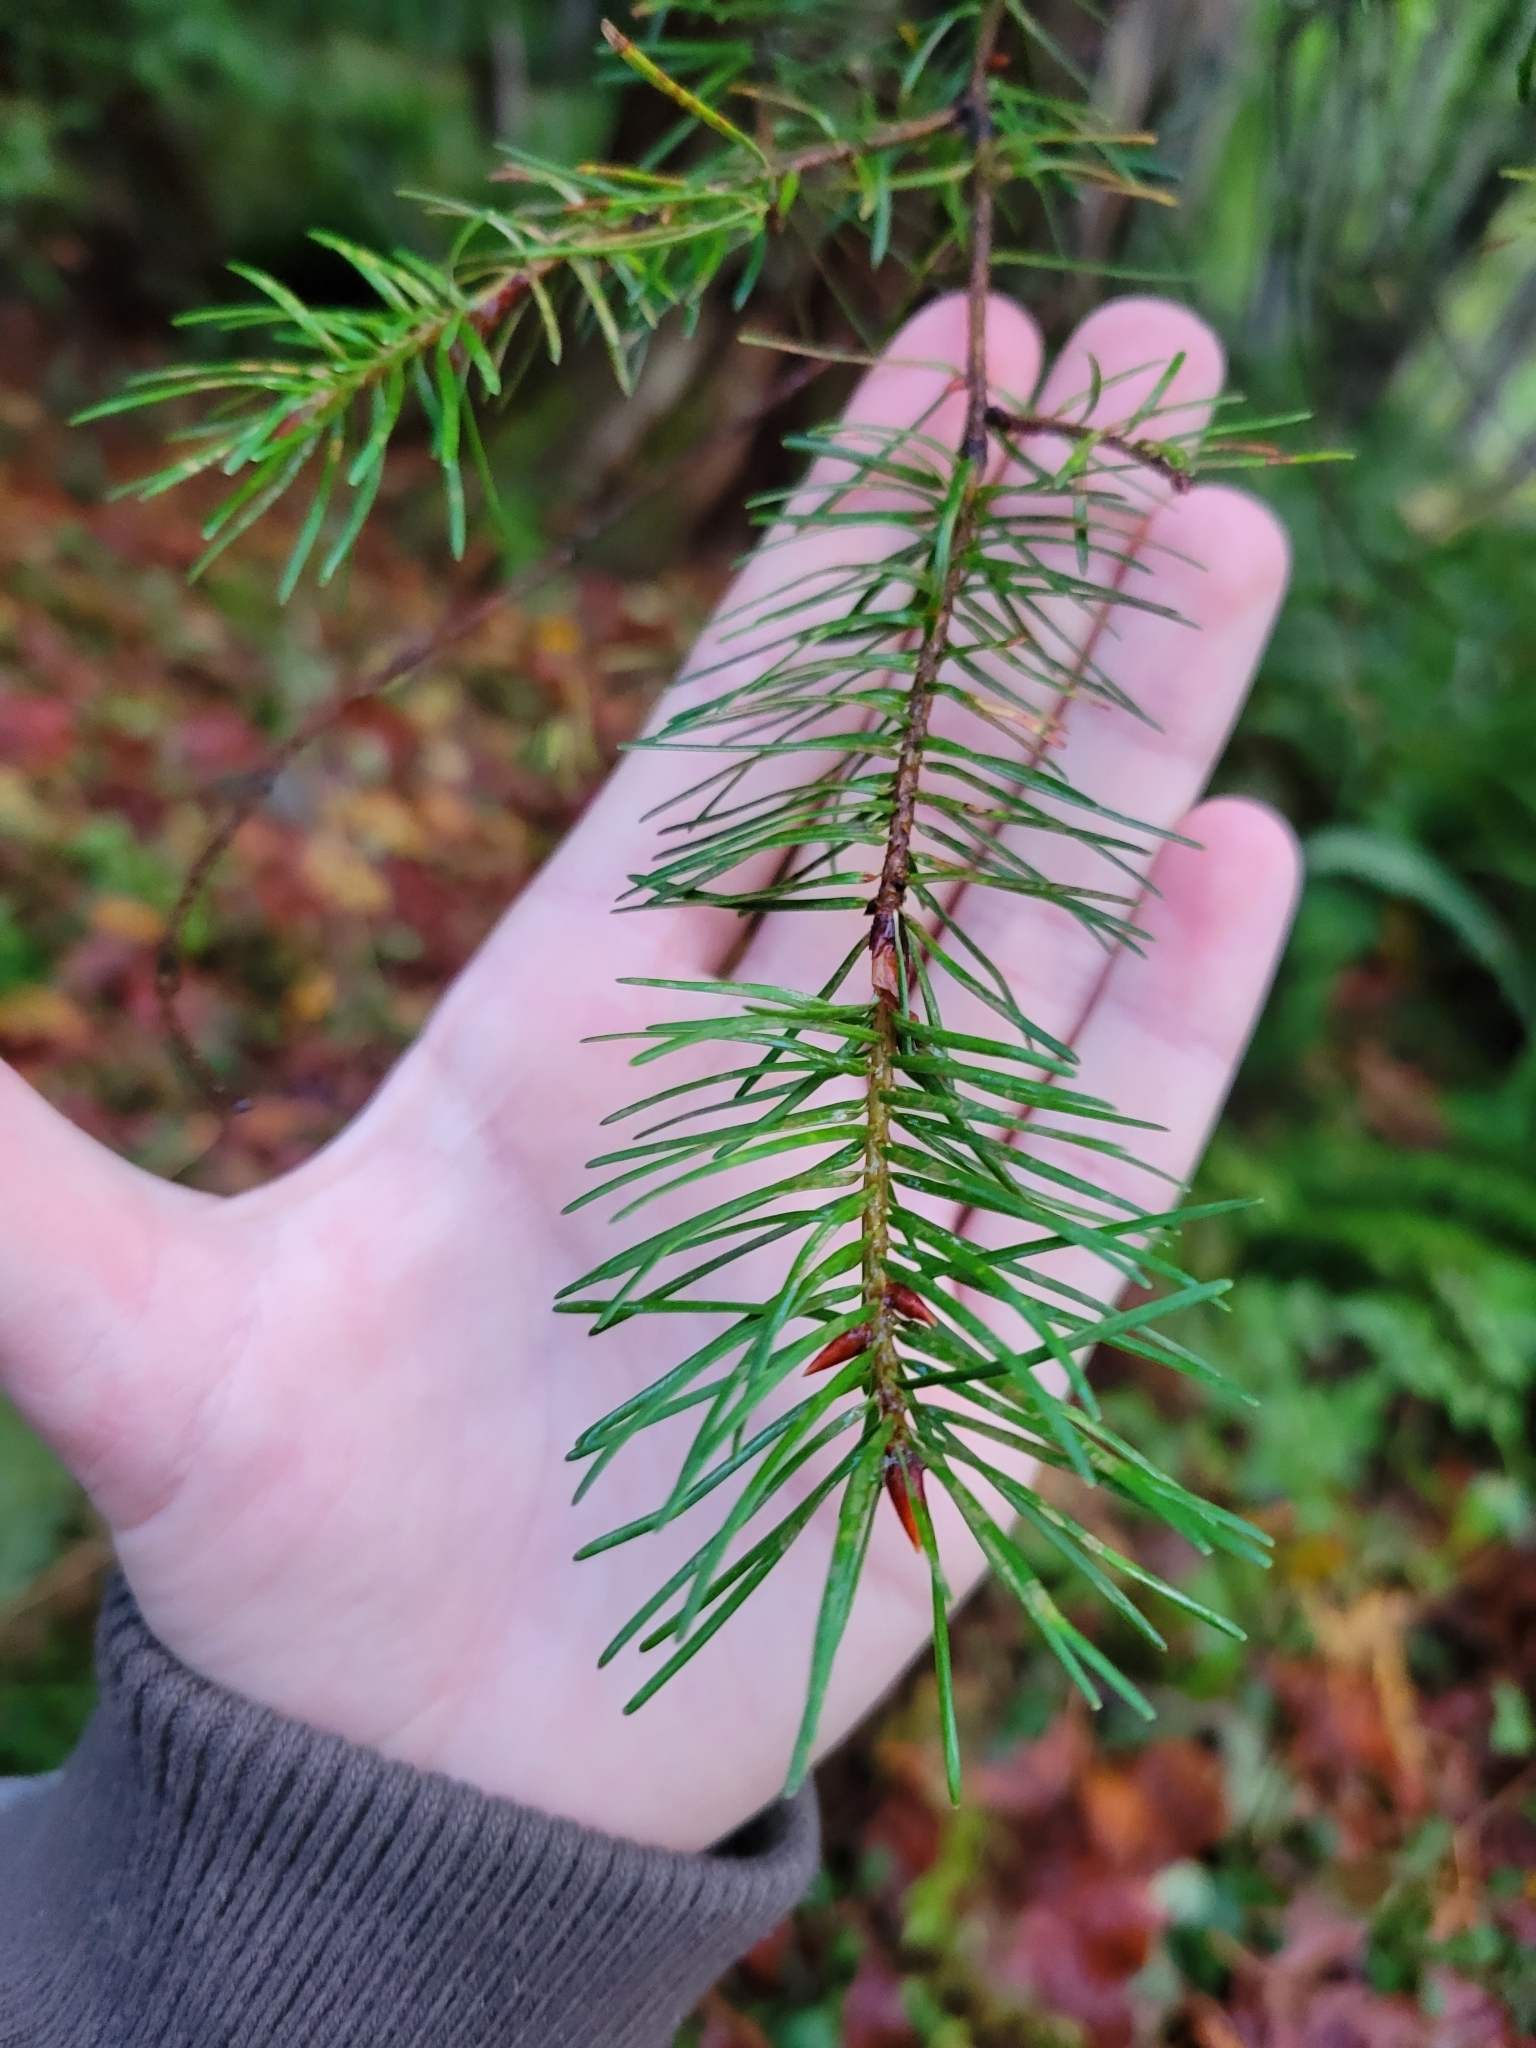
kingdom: Plantae
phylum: Tracheophyta
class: Pinopsida
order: Pinales
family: Pinaceae
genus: Pseudotsuga
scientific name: Pseudotsuga menziesii
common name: Douglas fir
